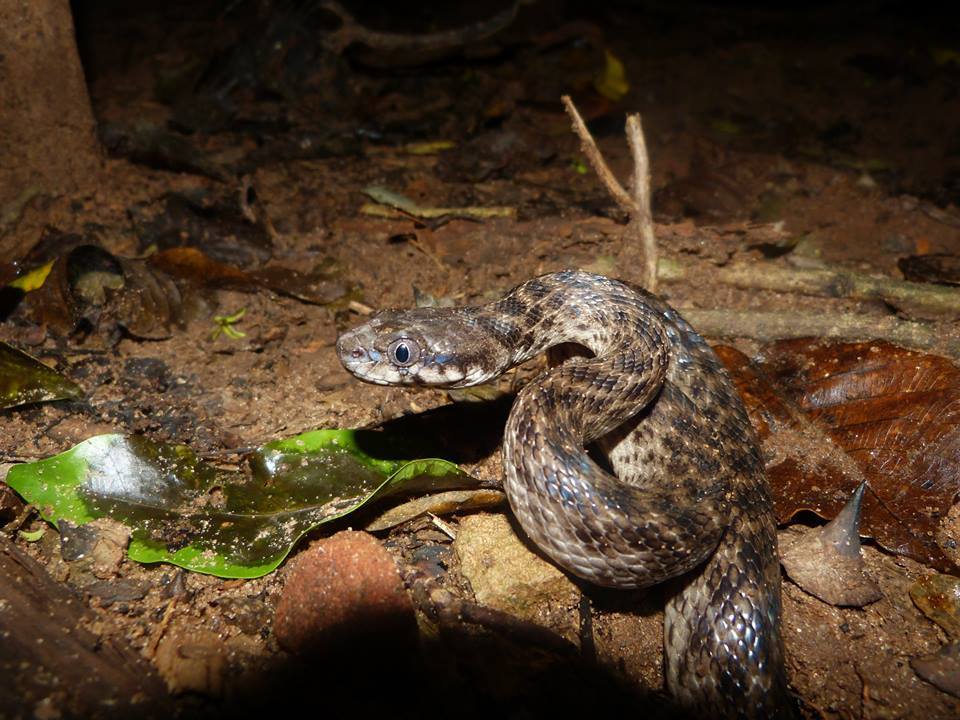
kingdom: Animalia
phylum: Chordata
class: Squamata
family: Pseudoxyrhophiidae
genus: Madagascarophis
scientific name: Madagascarophis colubrinus
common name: Madagascar night snake
